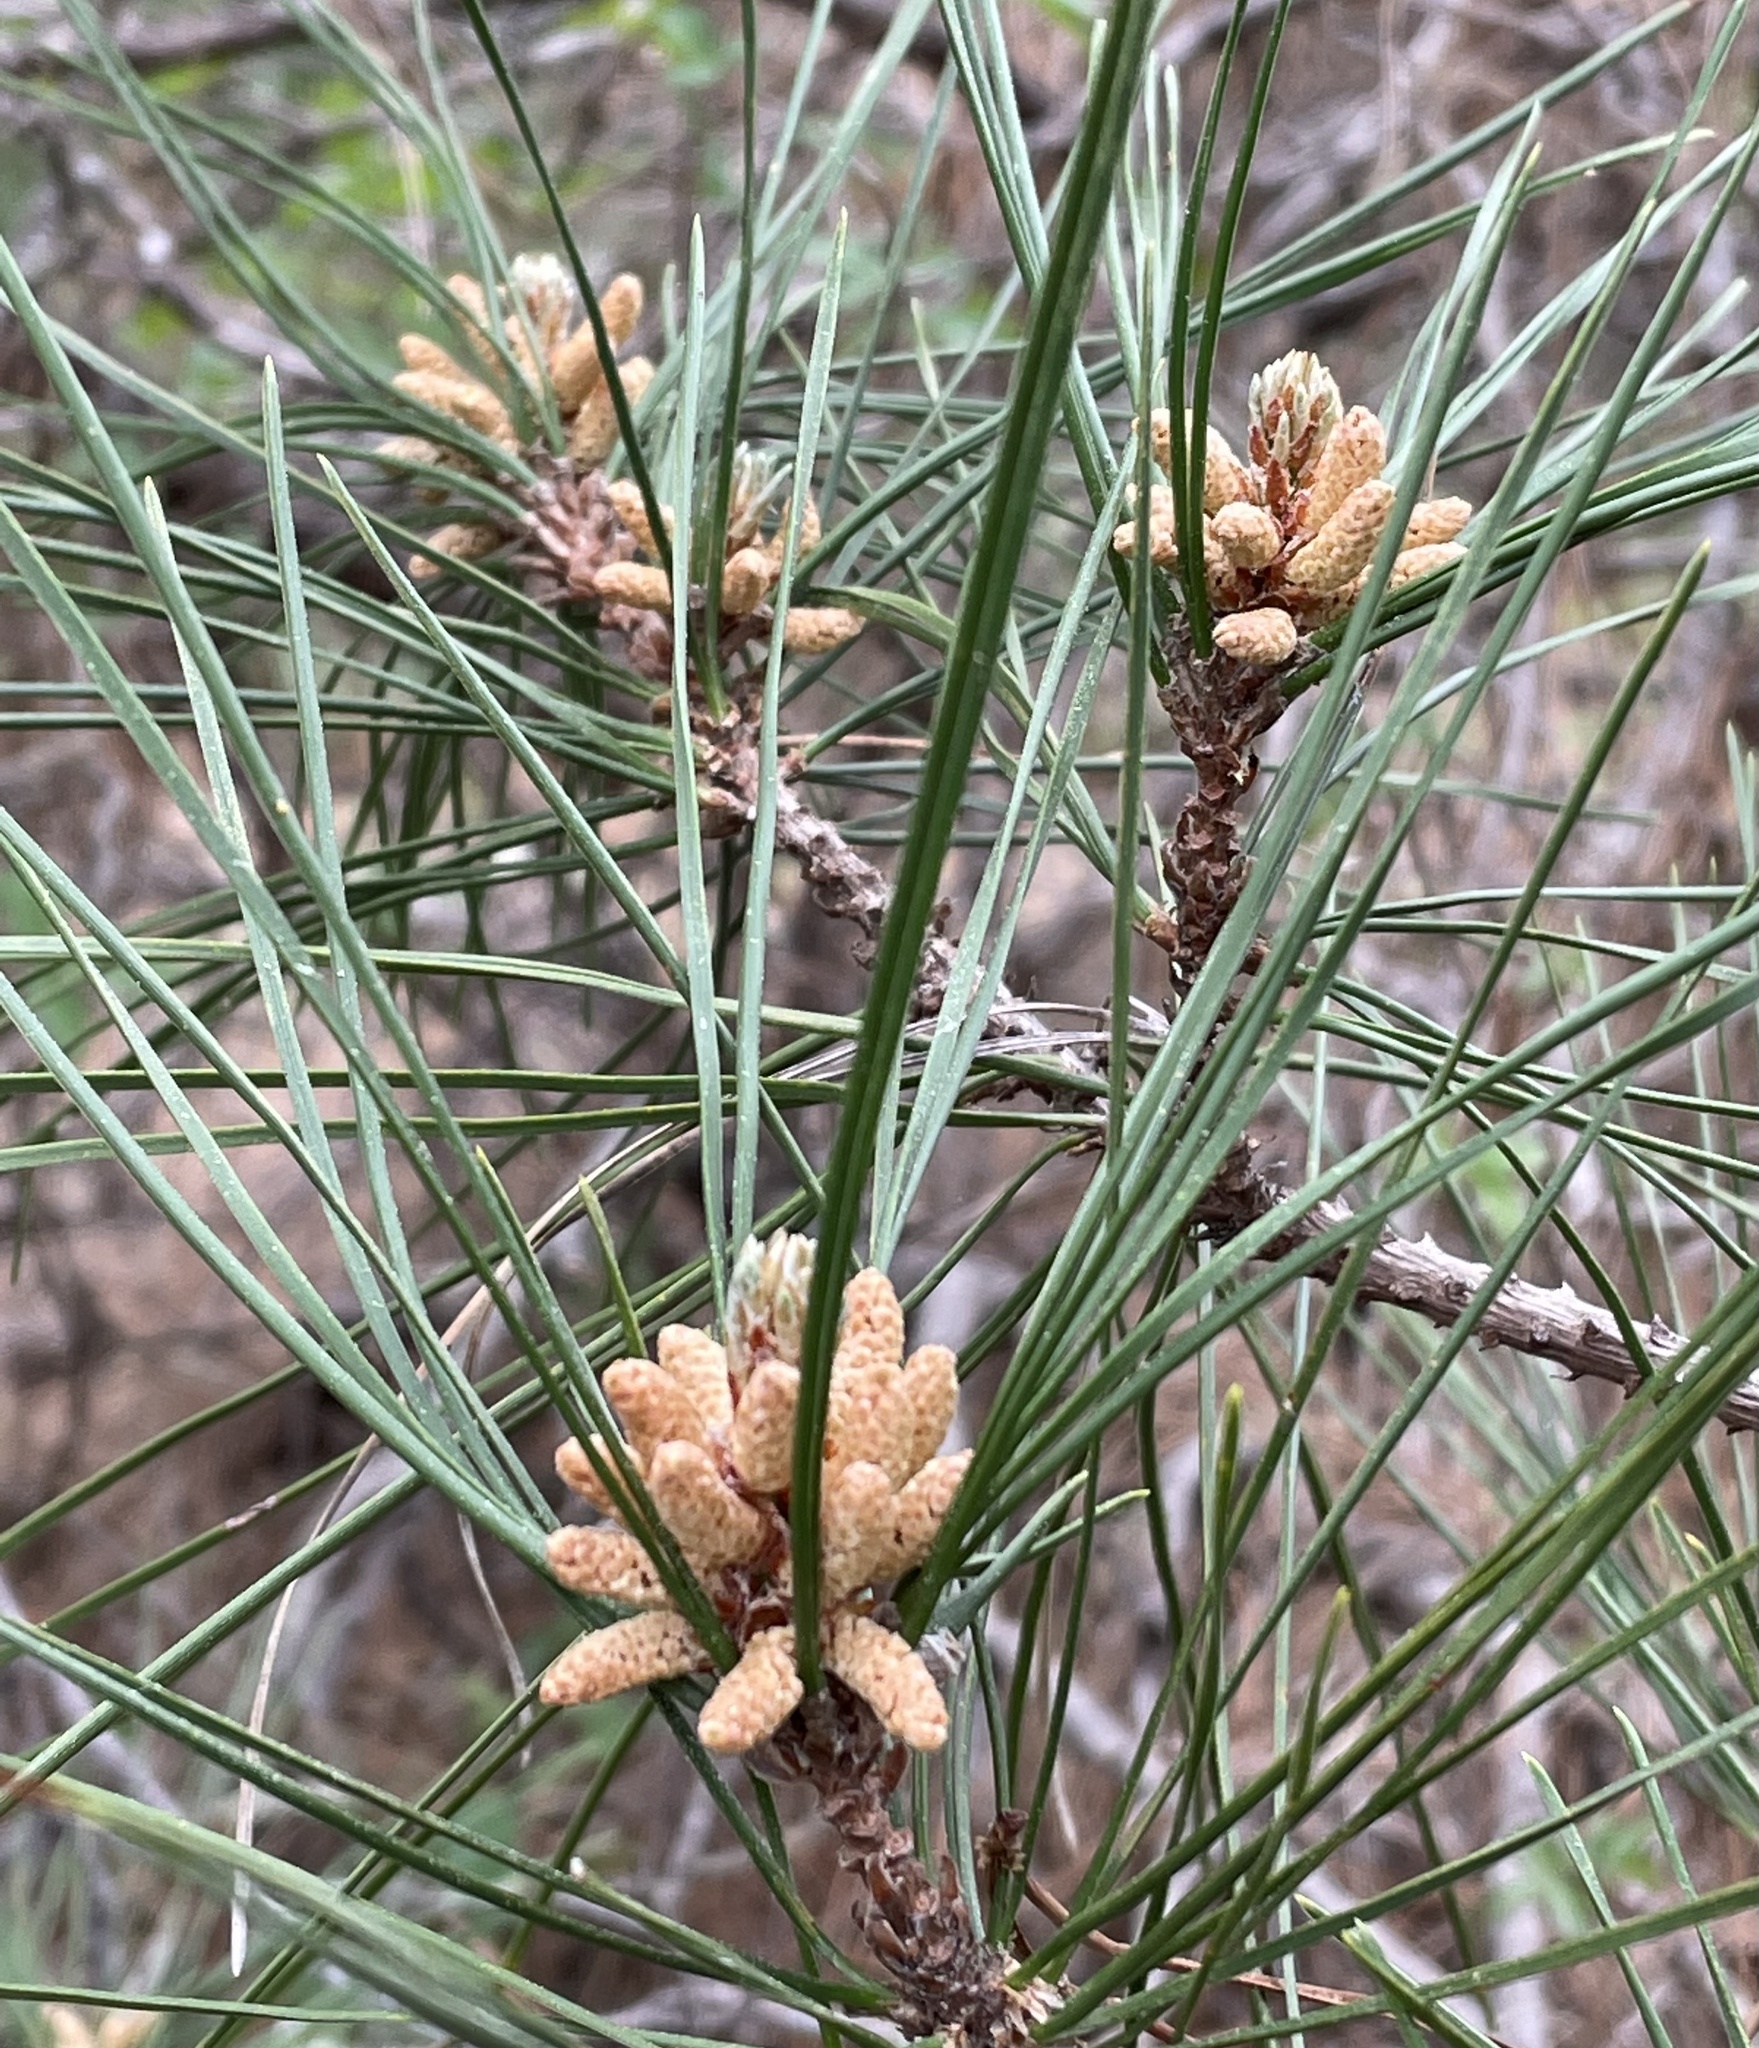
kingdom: Plantae
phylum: Tracheophyta
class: Pinopsida
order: Pinales
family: Pinaceae
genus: Pinus
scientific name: Pinus radiata
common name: Monterey pine
